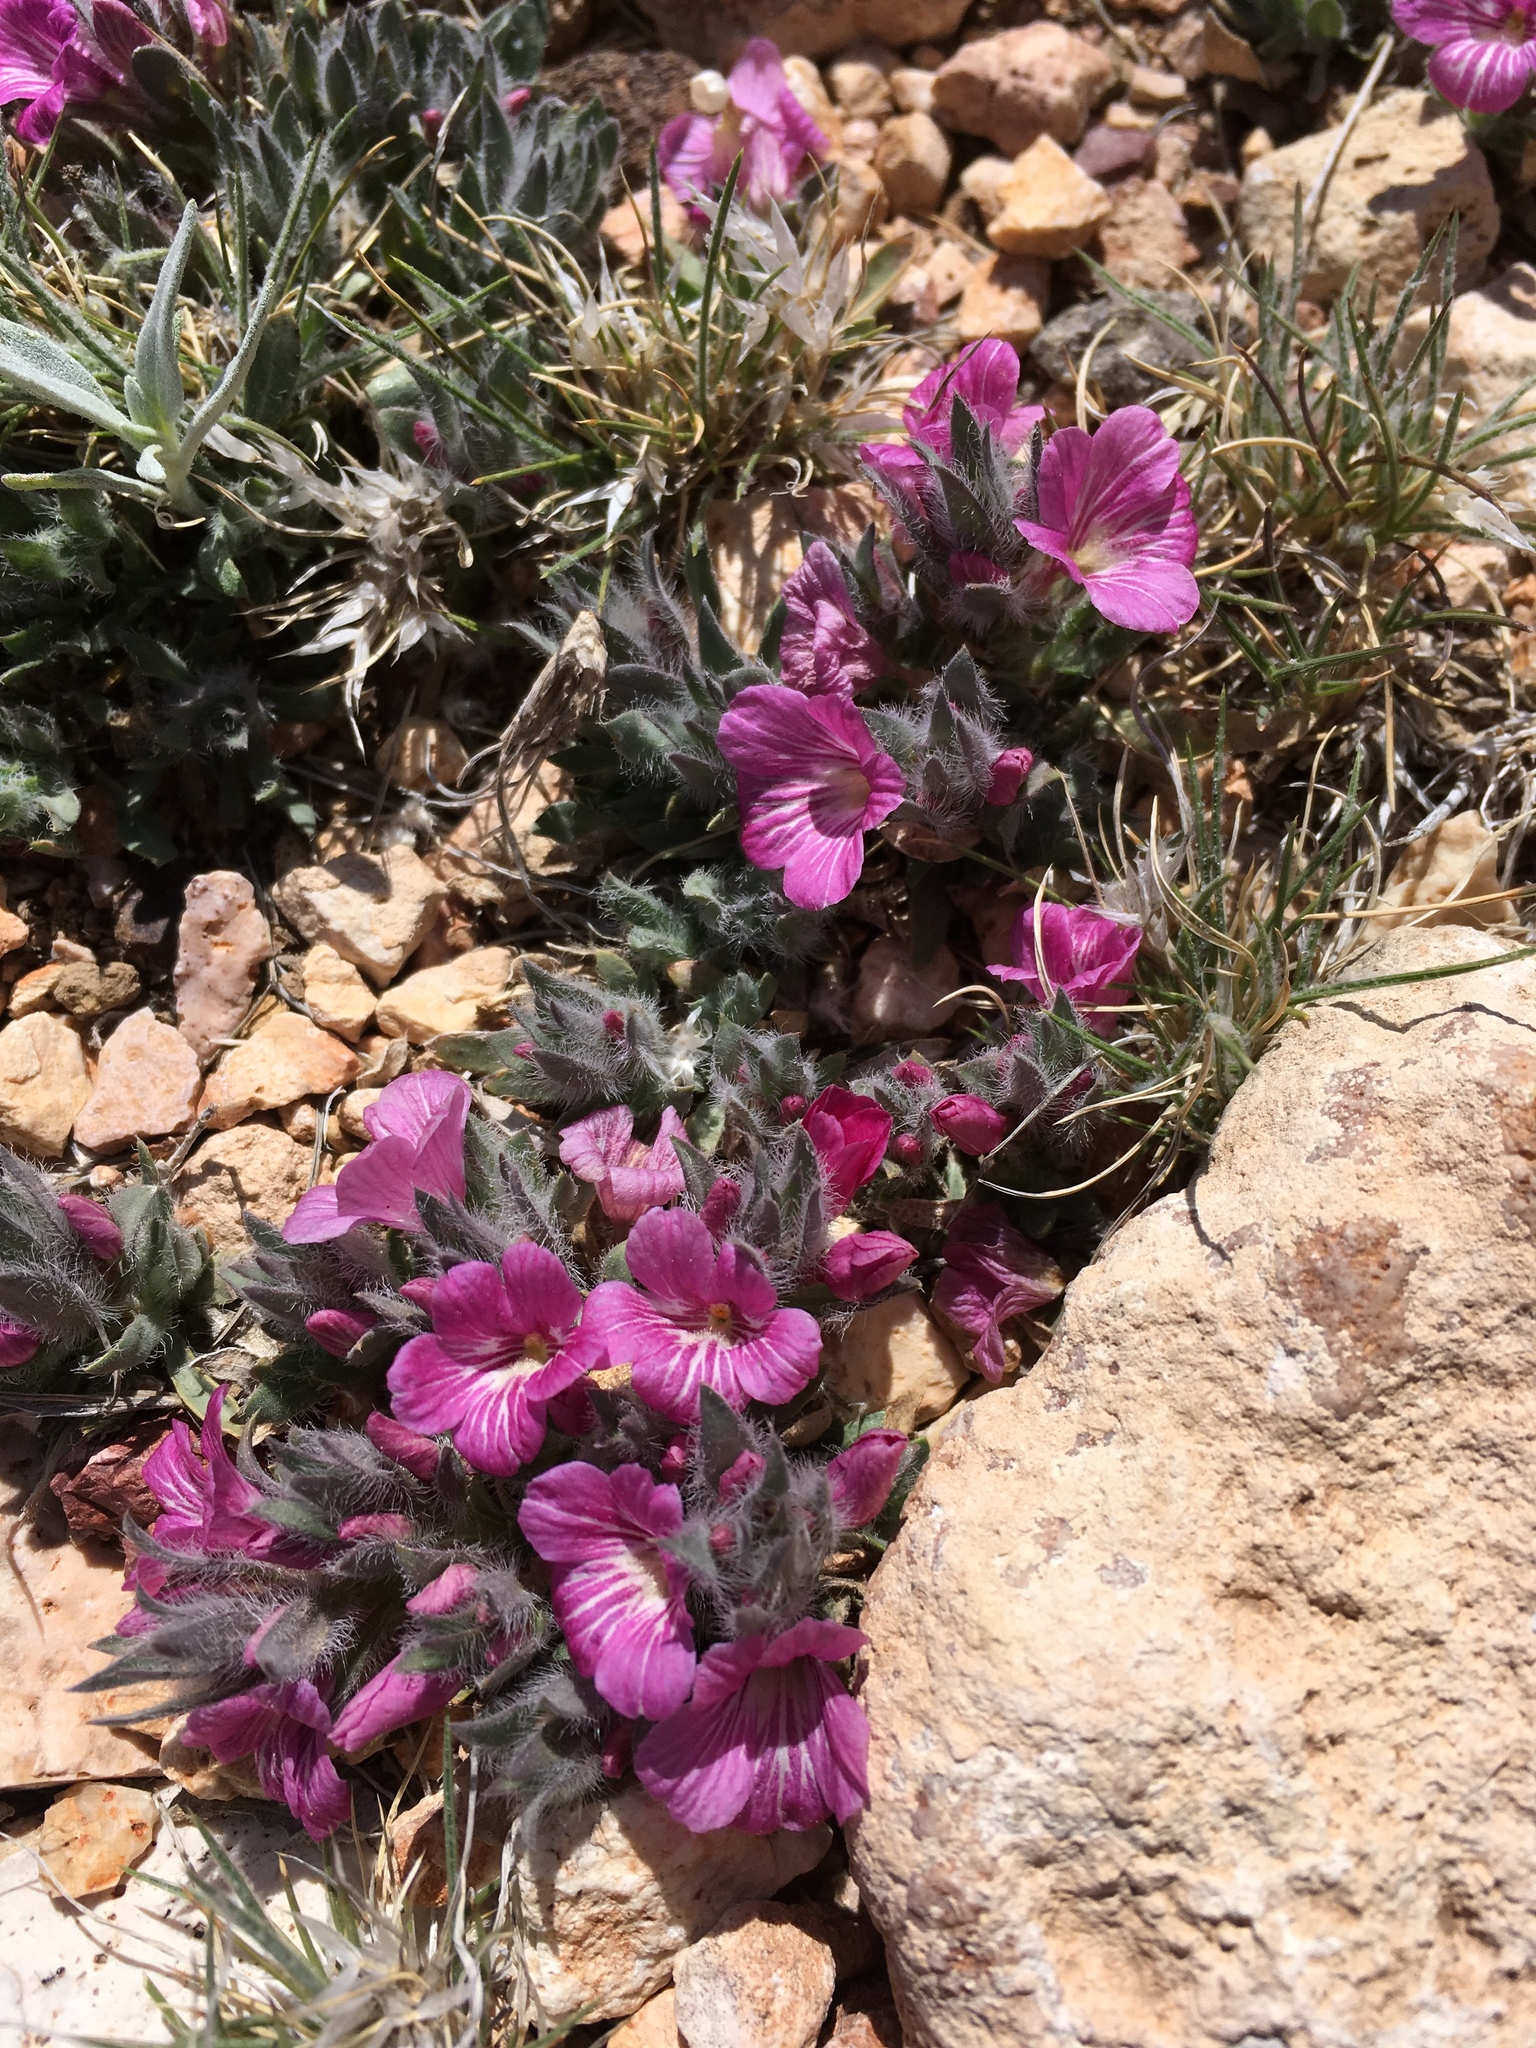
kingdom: Plantae
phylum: Tracheophyta
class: Magnoliopsida
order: Lamiales
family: Acanthaceae
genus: Stenandrium
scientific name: Stenandrium barbatum
